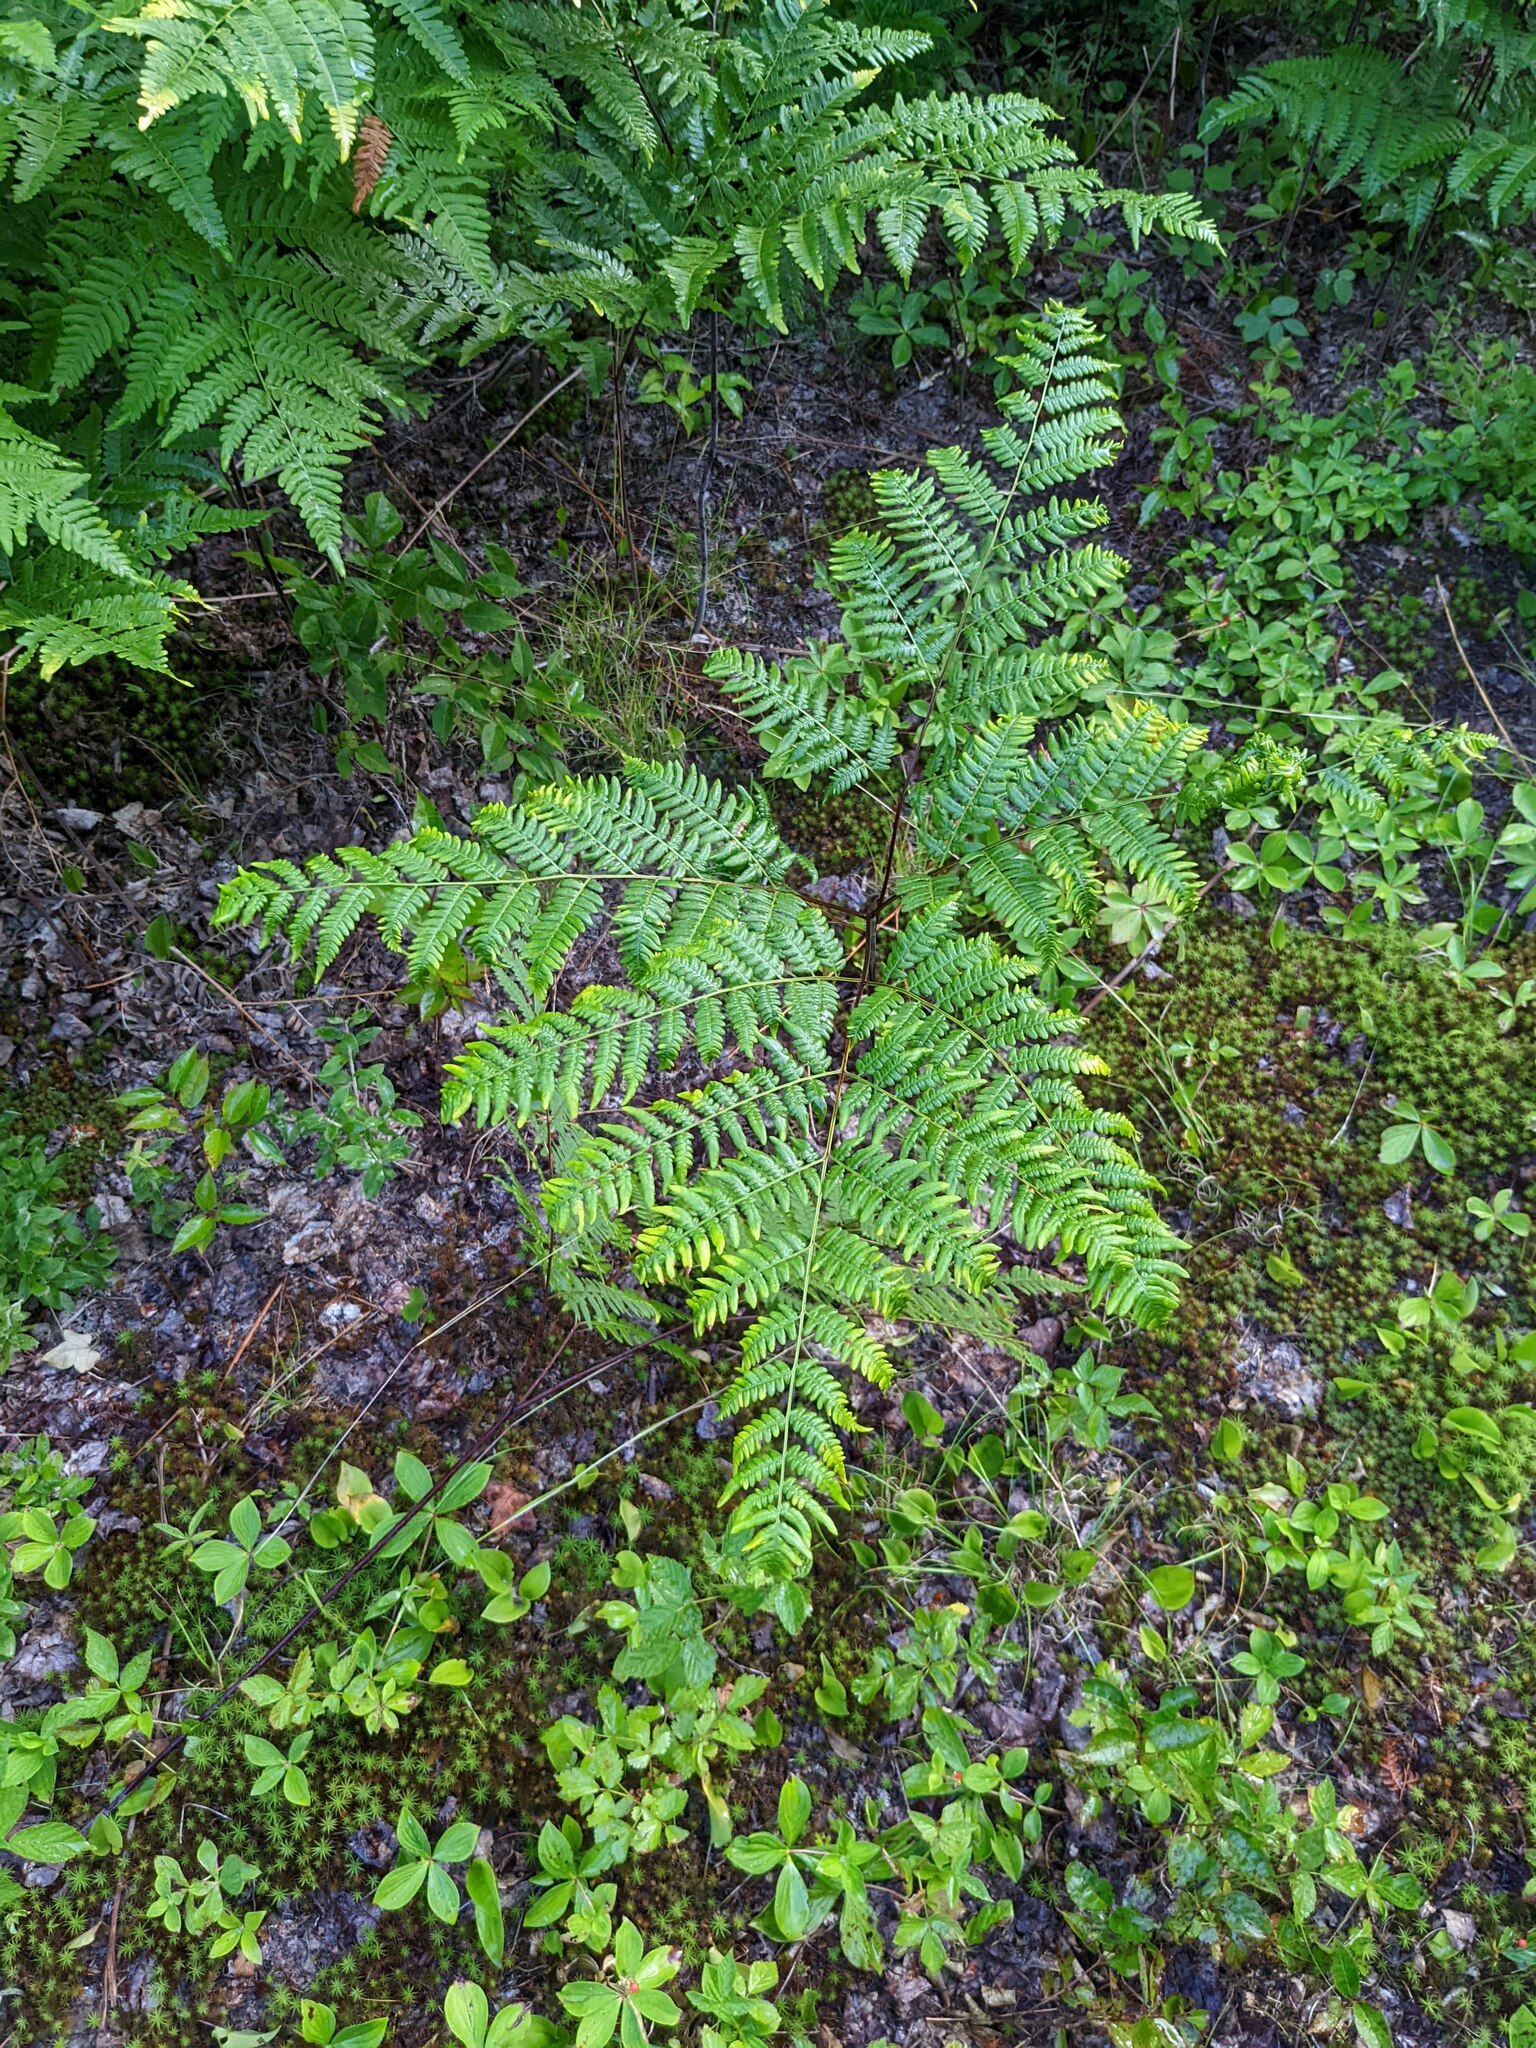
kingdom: Plantae
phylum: Tracheophyta
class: Polypodiopsida
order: Polypodiales
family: Dennstaedtiaceae
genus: Pteridium
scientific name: Pteridium aquilinum
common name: Bracken
